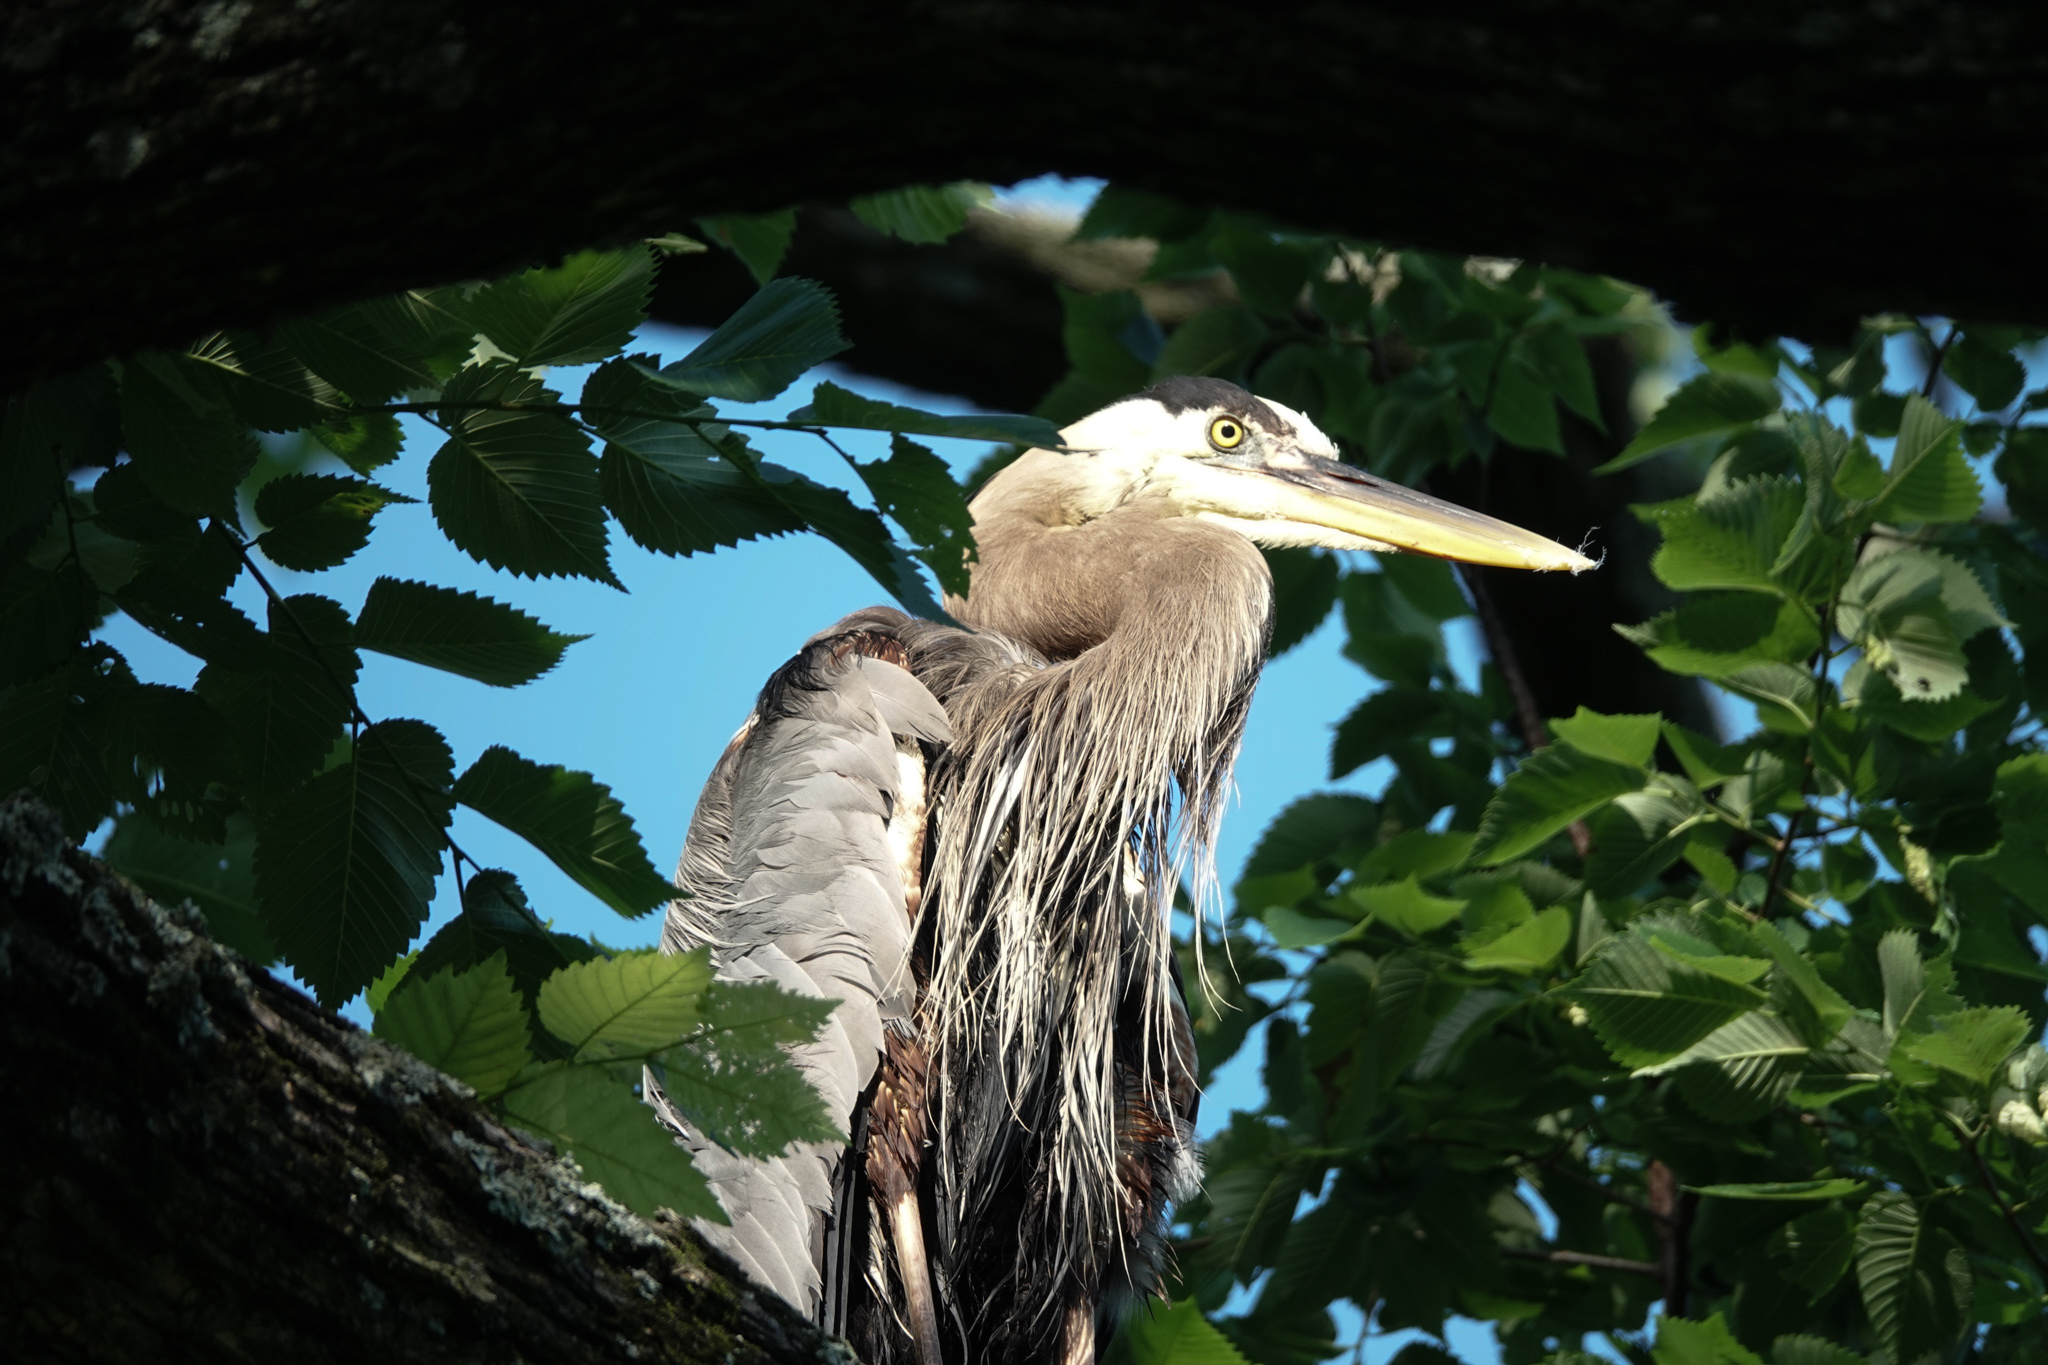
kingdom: Animalia
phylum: Chordata
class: Aves
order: Pelecaniformes
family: Ardeidae
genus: Ardea
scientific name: Ardea herodias
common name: Great blue heron
